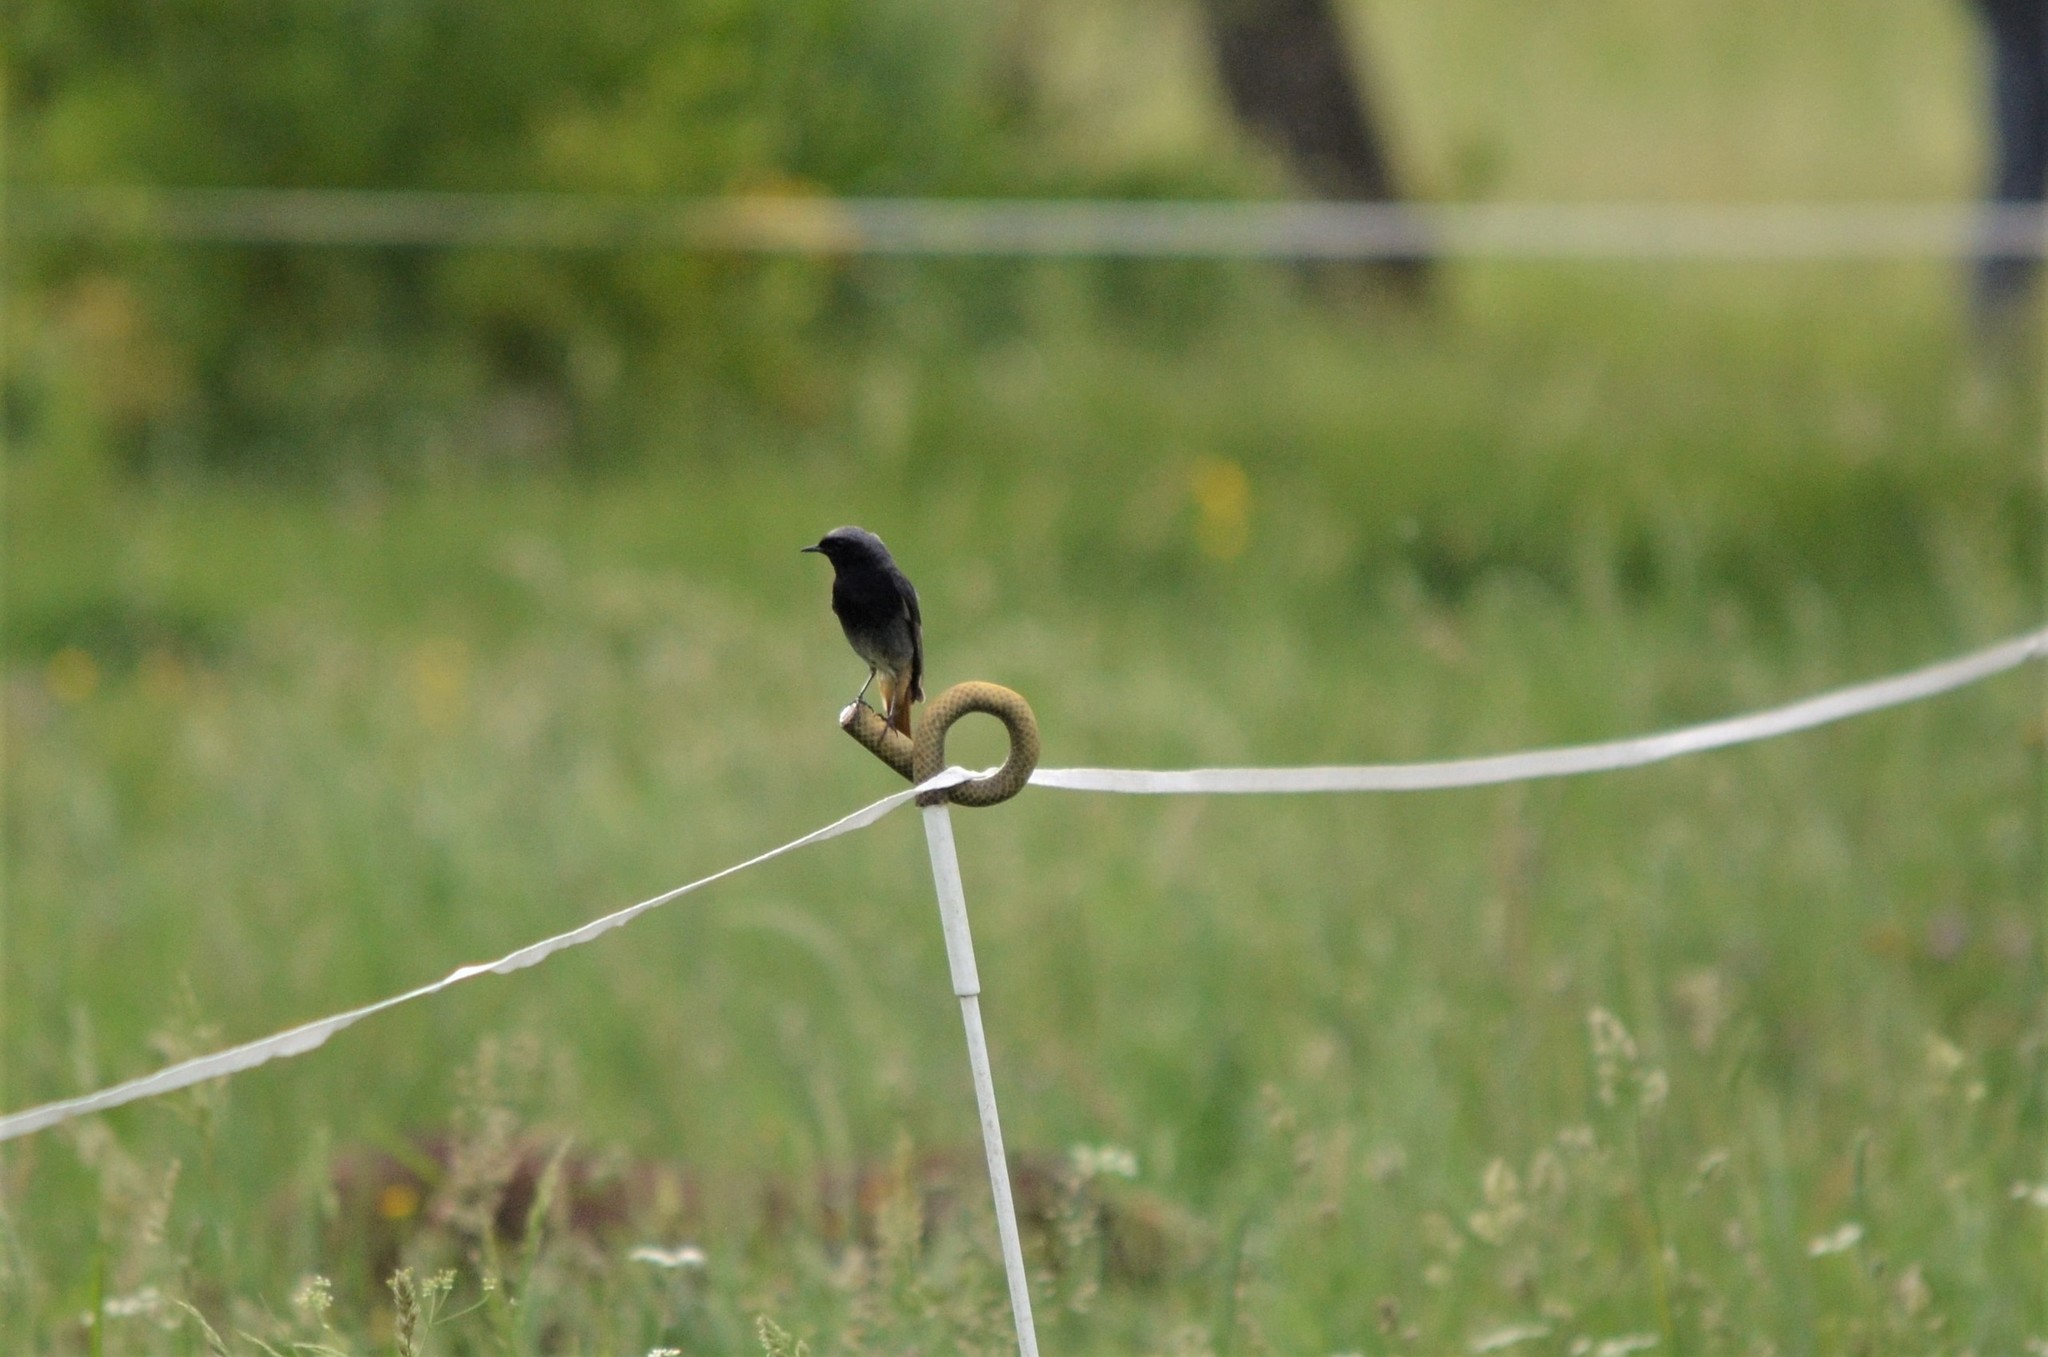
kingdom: Animalia
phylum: Chordata
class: Aves
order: Passeriformes
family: Muscicapidae
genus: Phoenicurus
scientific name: Phoenicurus ochruros
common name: Black redstart
